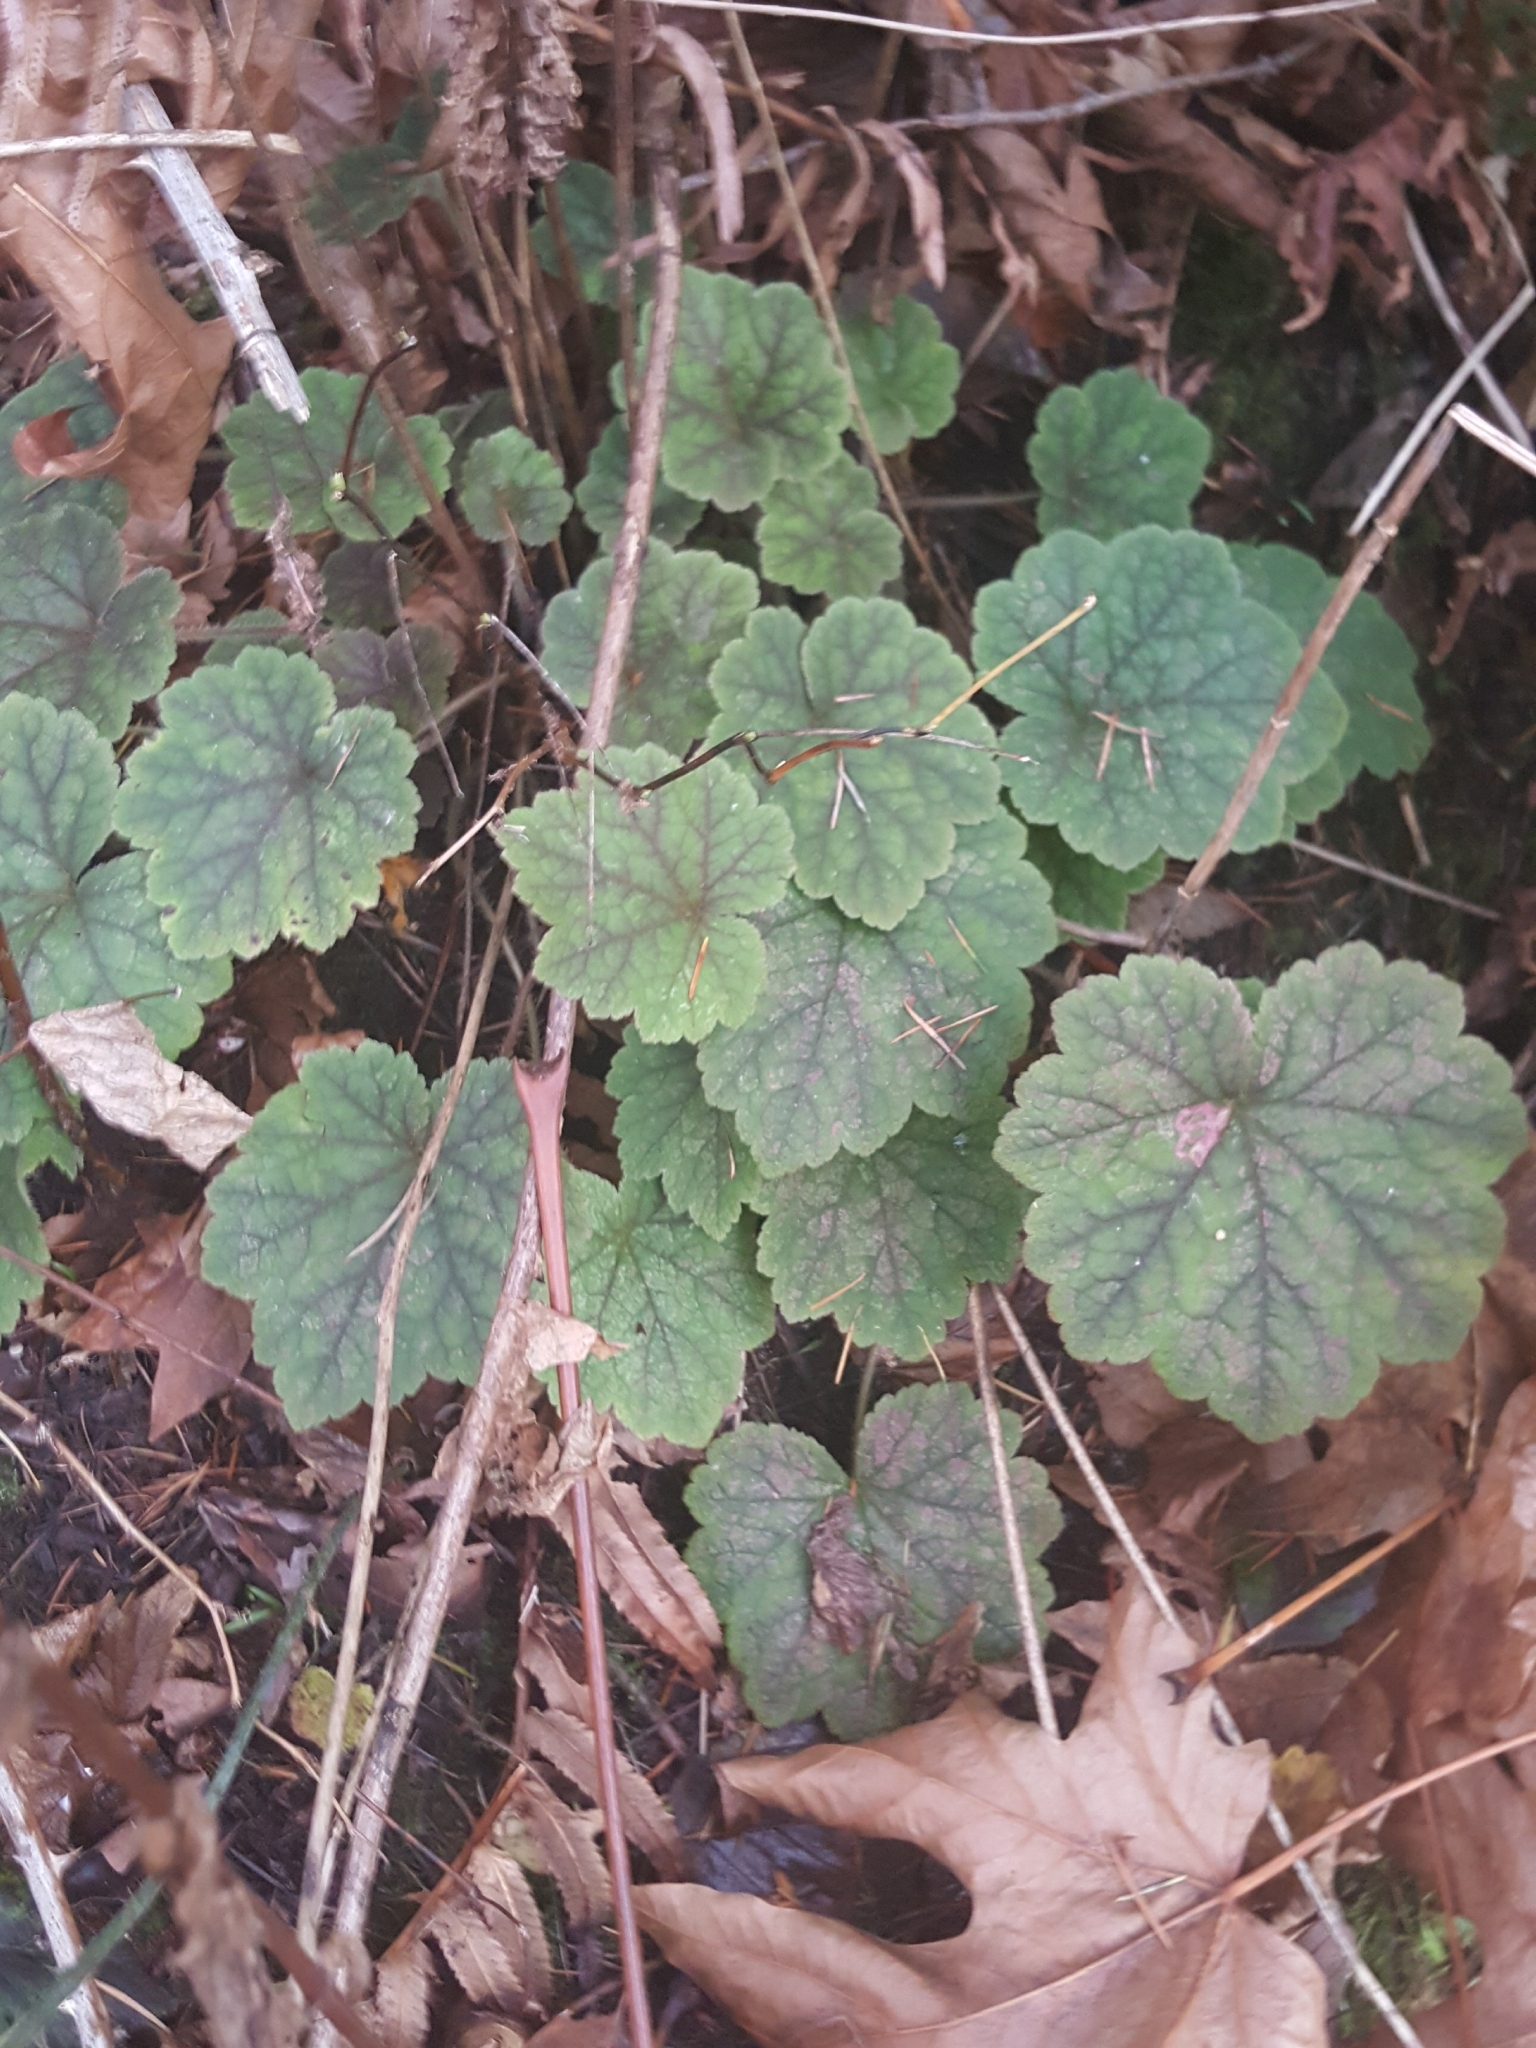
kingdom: Plantae
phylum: Tracheophyta
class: Magnoliopsida
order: Saxifragales
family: Saxifragaceae
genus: Tellima
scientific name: Tellima grandiflora
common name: Fringecups
